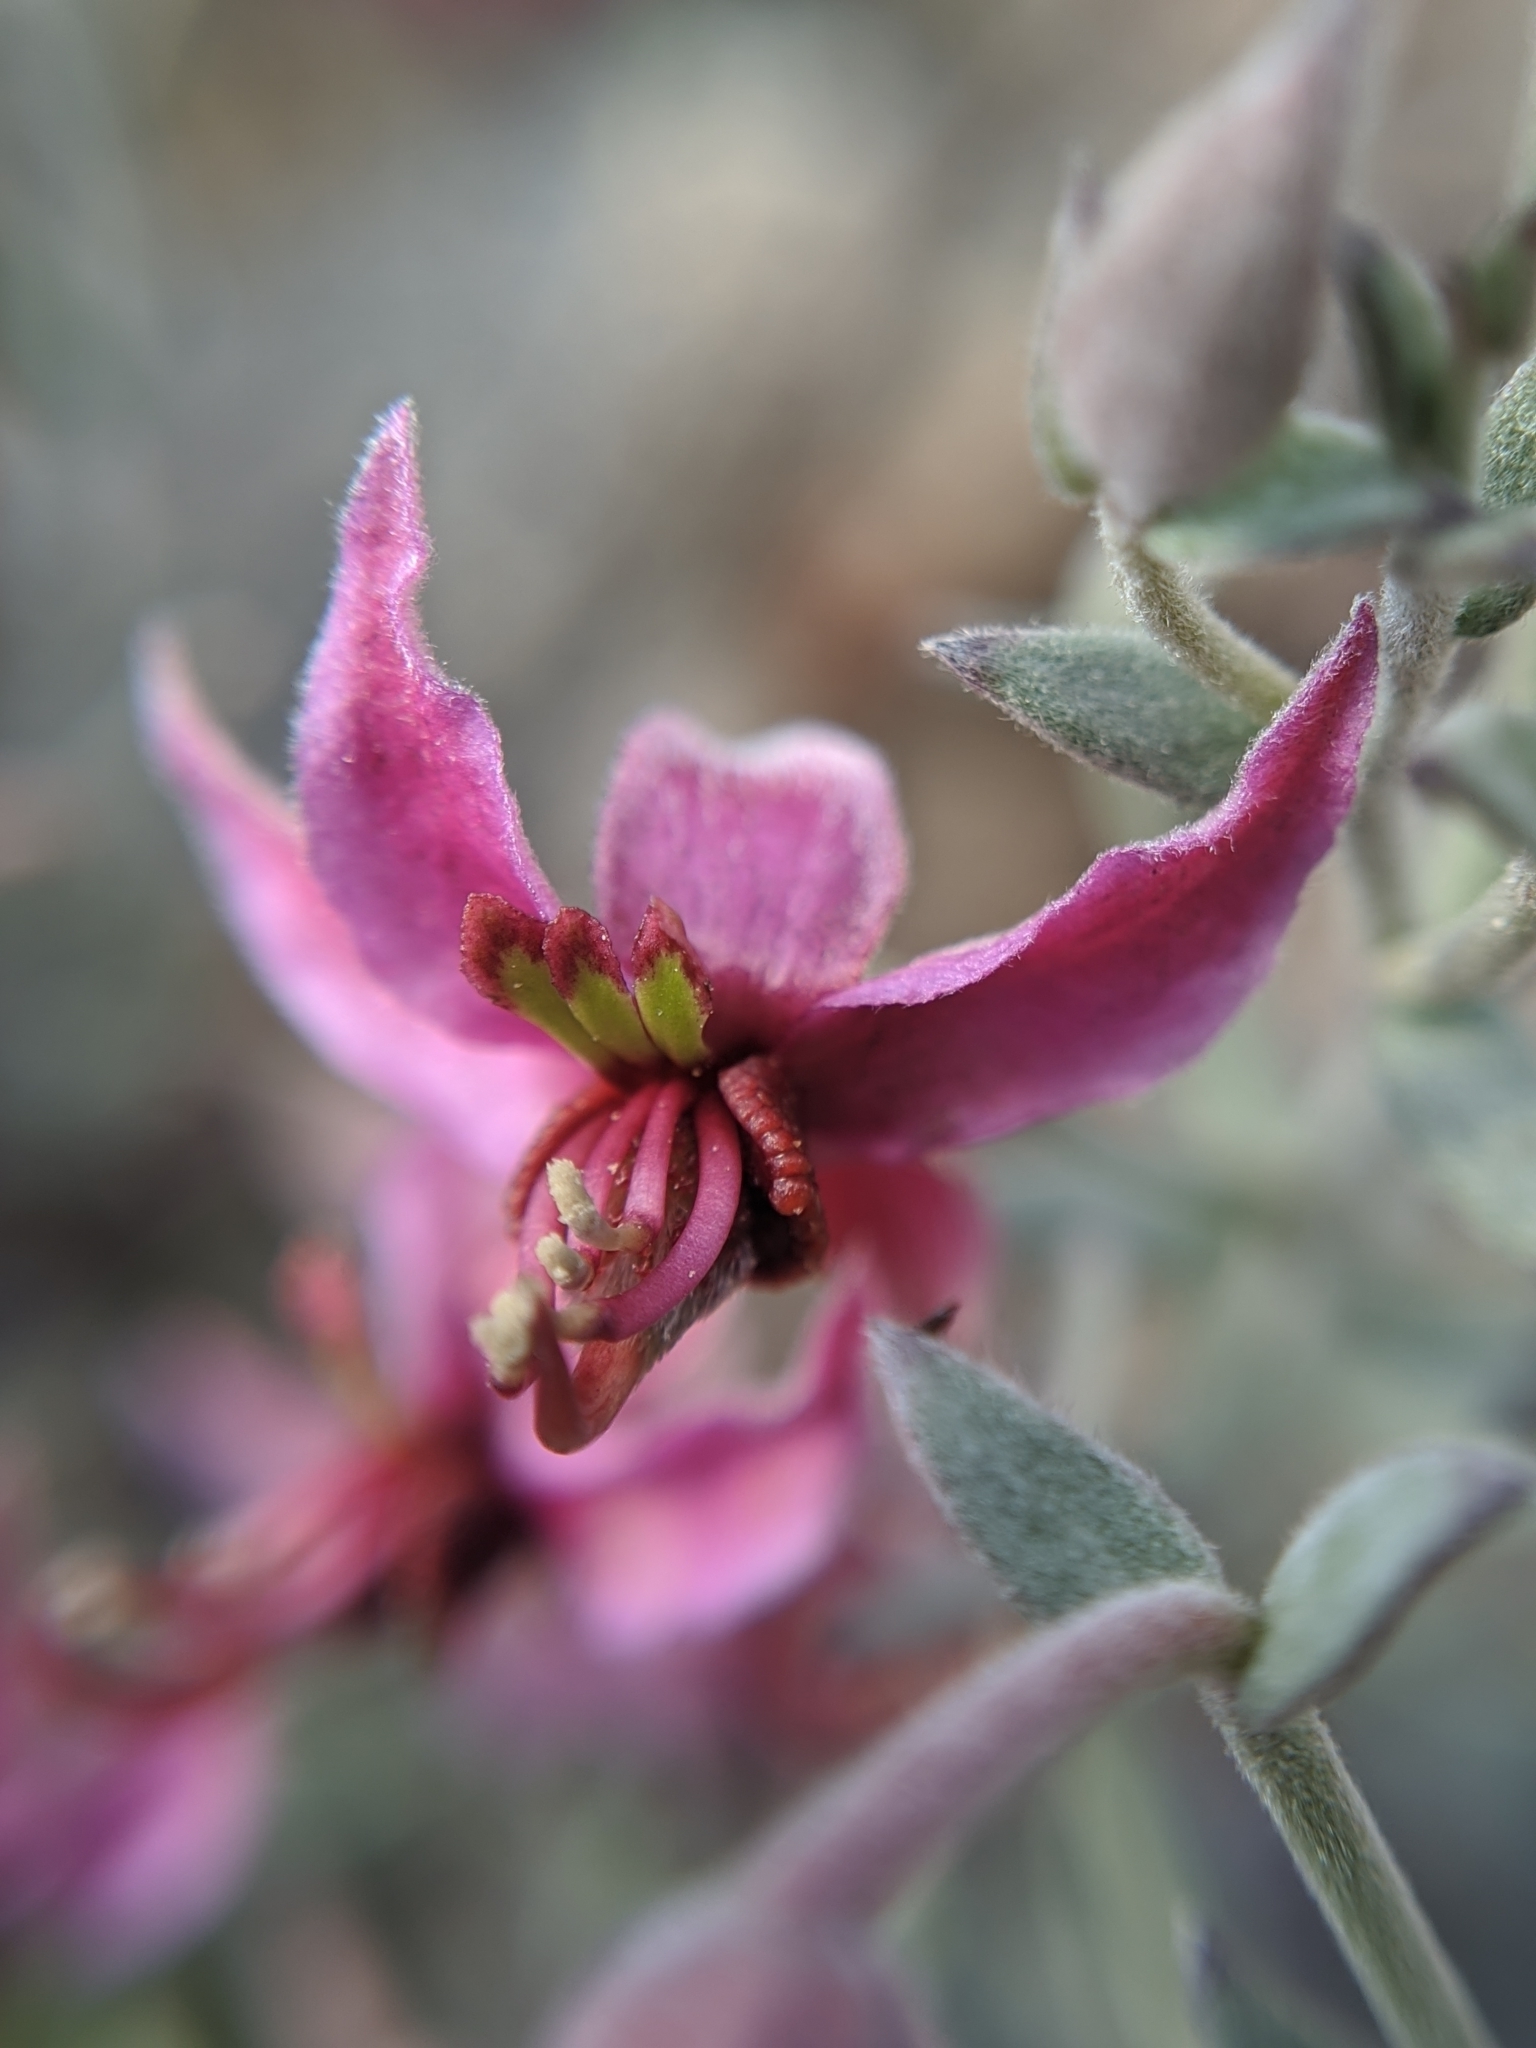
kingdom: Plantae
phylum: Tracheophyta
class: Magnoliopsida
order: Zygophyllales
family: Krameriaceae
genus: Krameria
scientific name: Krameria bicolor
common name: White ratany
